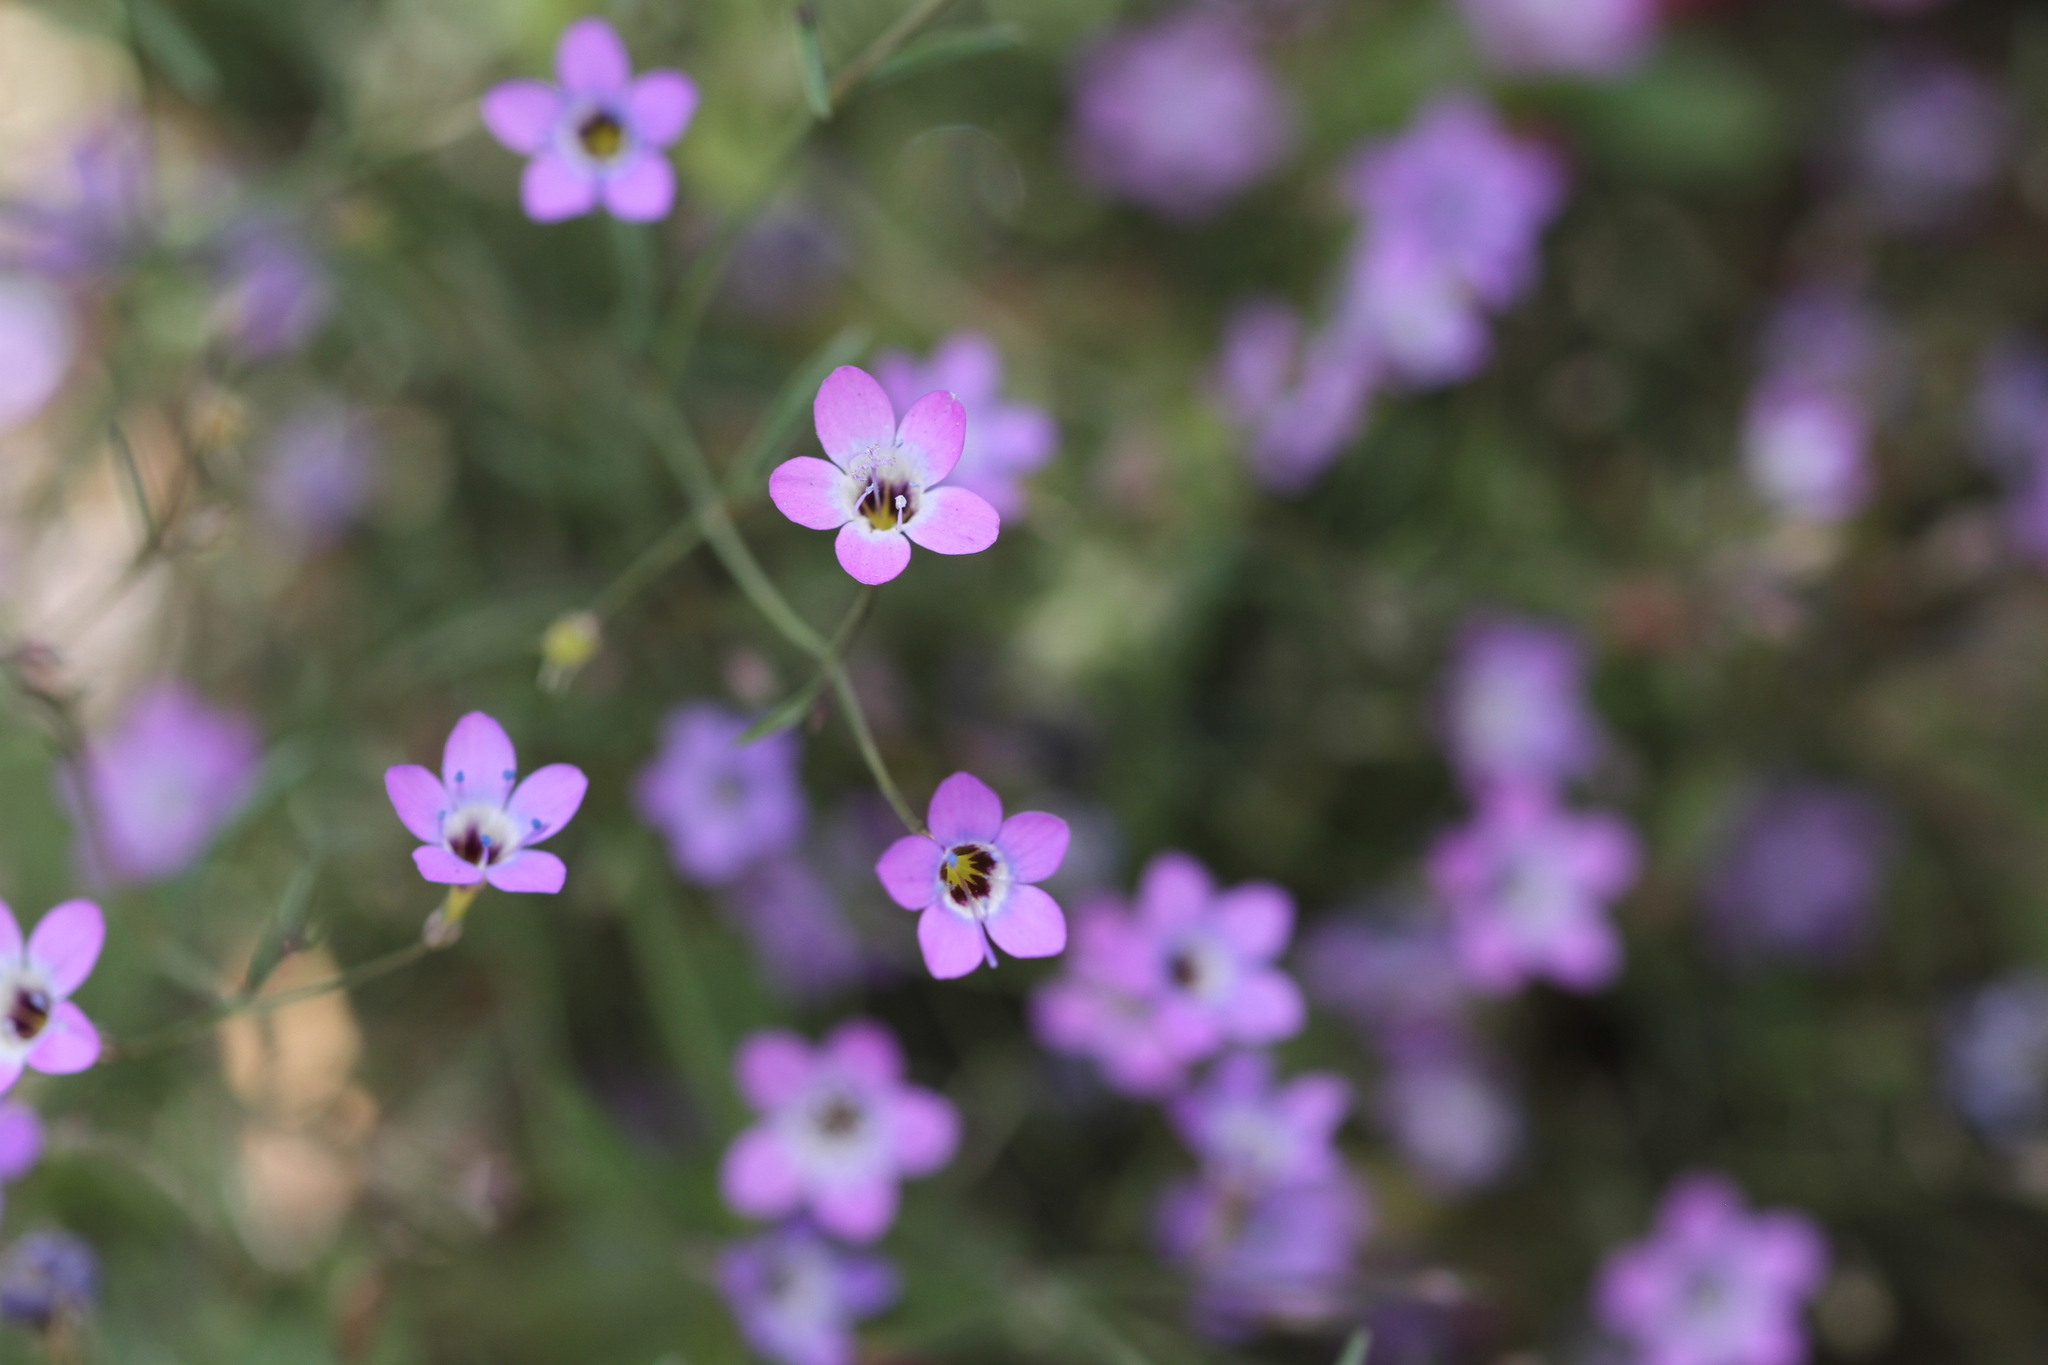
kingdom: Plantae
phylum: Tracheophyta
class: Magnoliopsida
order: Ericales
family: Polemoniaceae
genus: Navarretia
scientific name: Navarretia leptalea
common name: Bridges' pincushionplant
